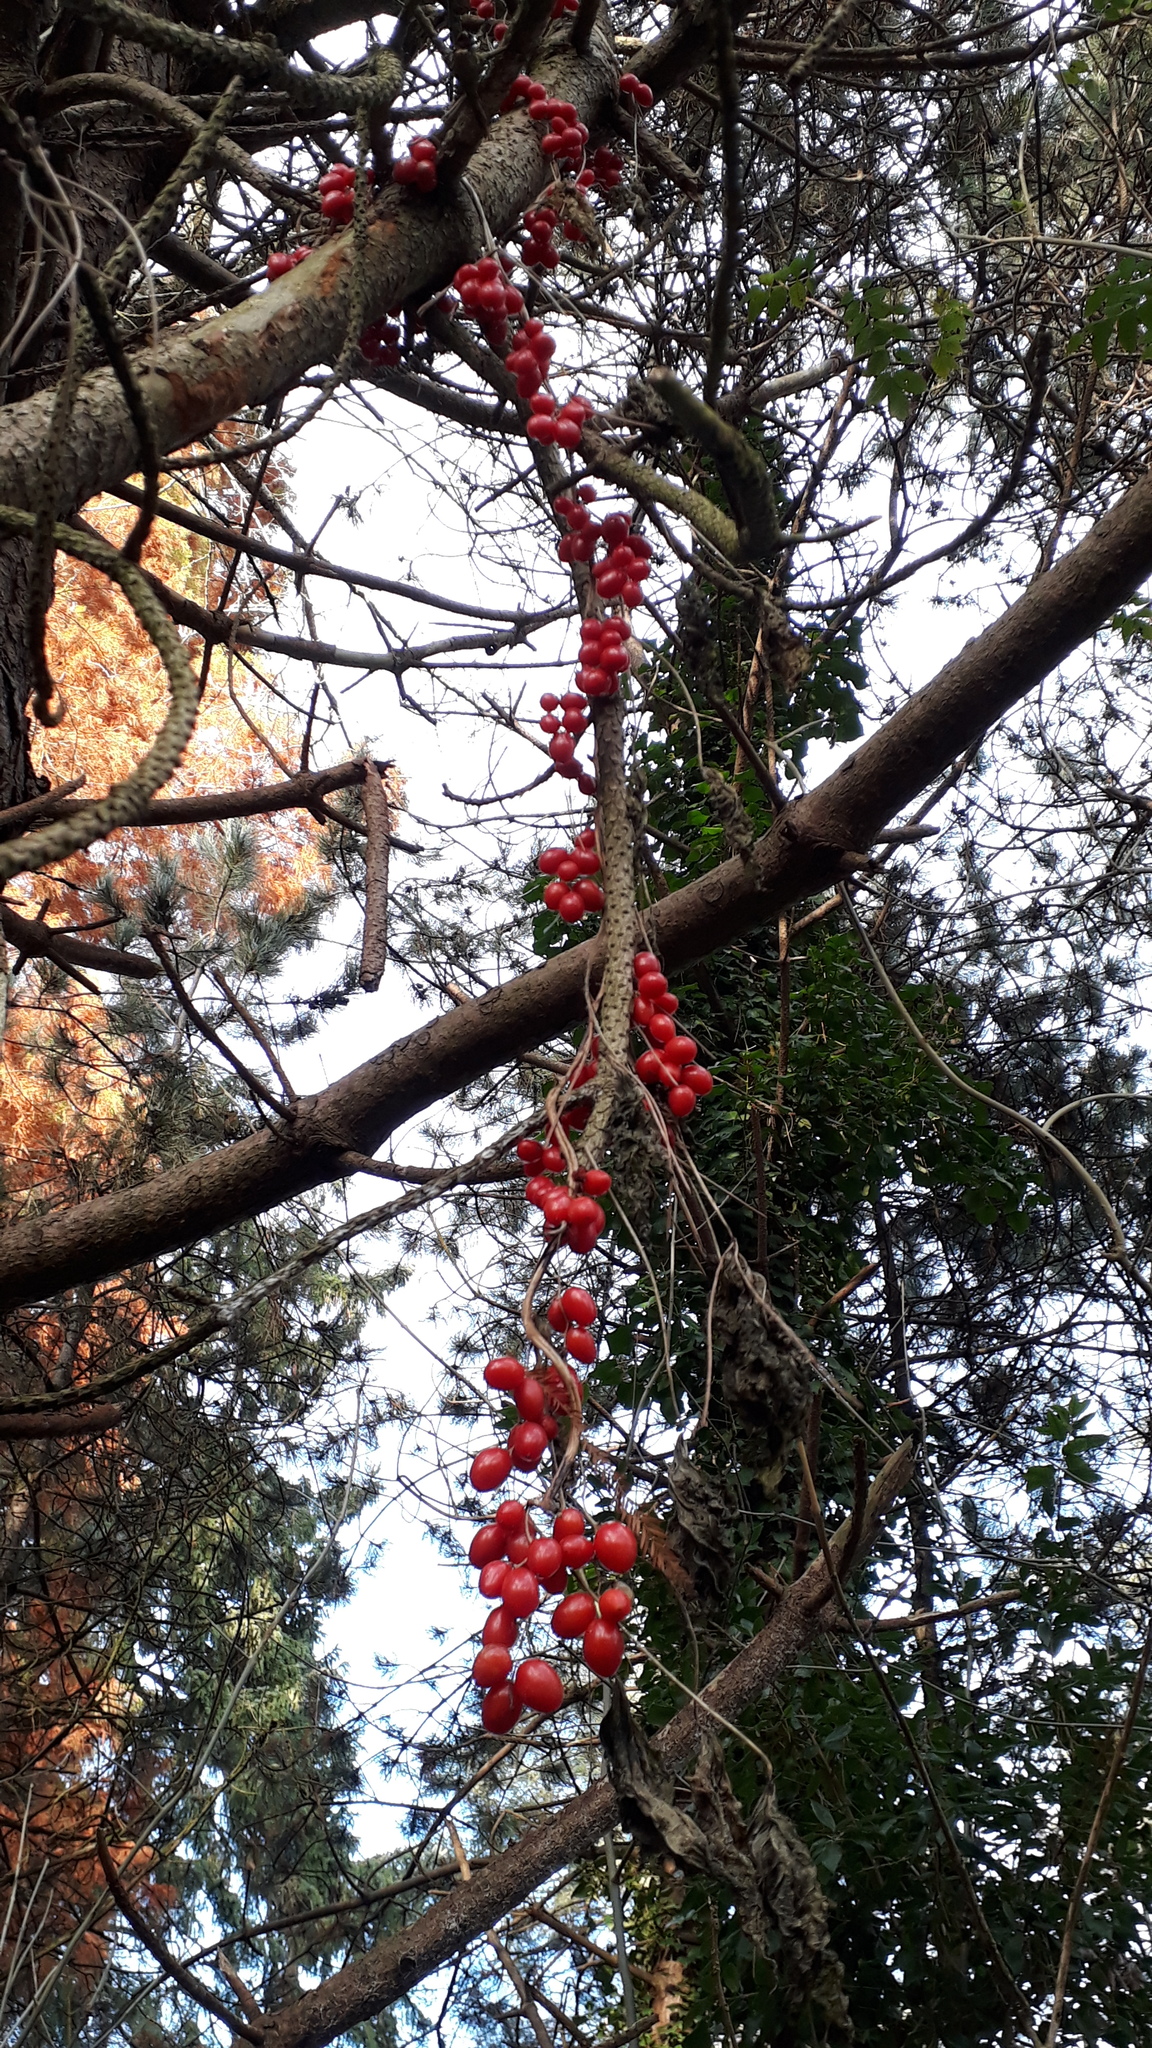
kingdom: Plantae
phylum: Tracheophyta
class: Liliopsida
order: Dioscoreales
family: Dioscoreaceae
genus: Dioscorea
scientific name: Dioscorea communis
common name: Black-bindweed
